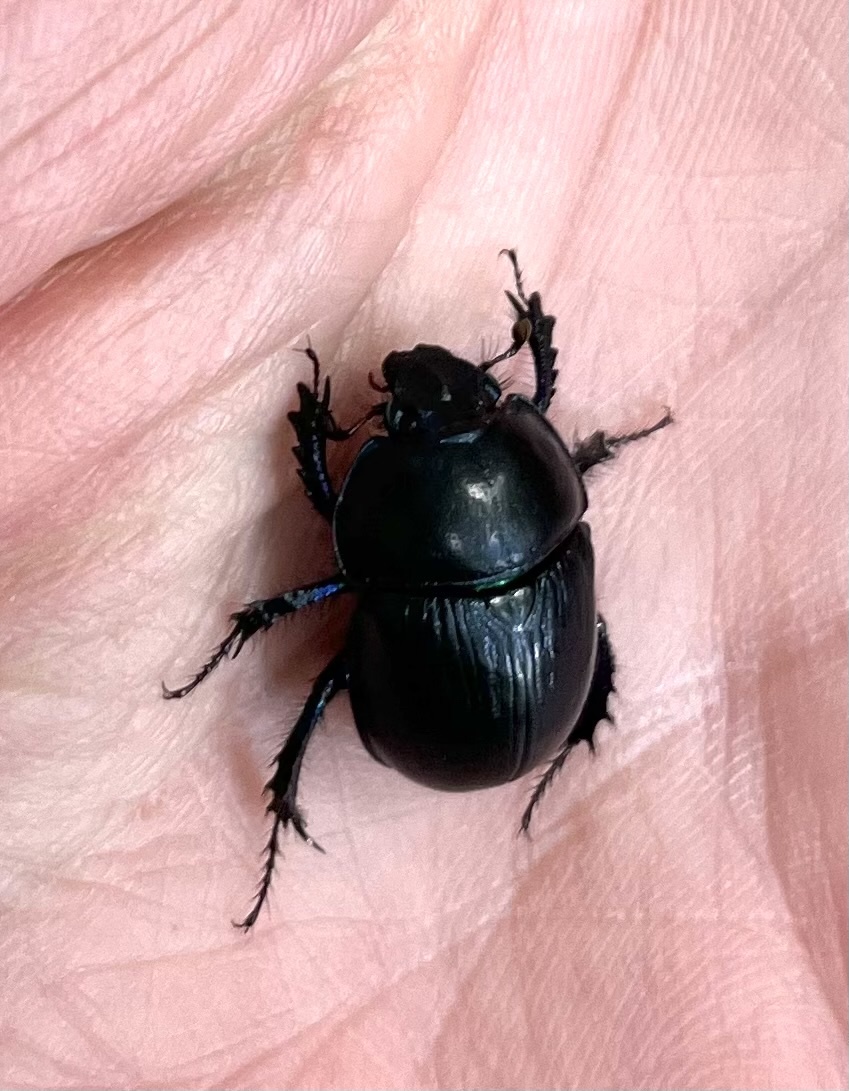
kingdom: Animalia
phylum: Arthropoda
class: Insecta
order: Coleoptera
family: Geotrupidae
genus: Anoplotrupes
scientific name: Anoplotrupes stercorosus
